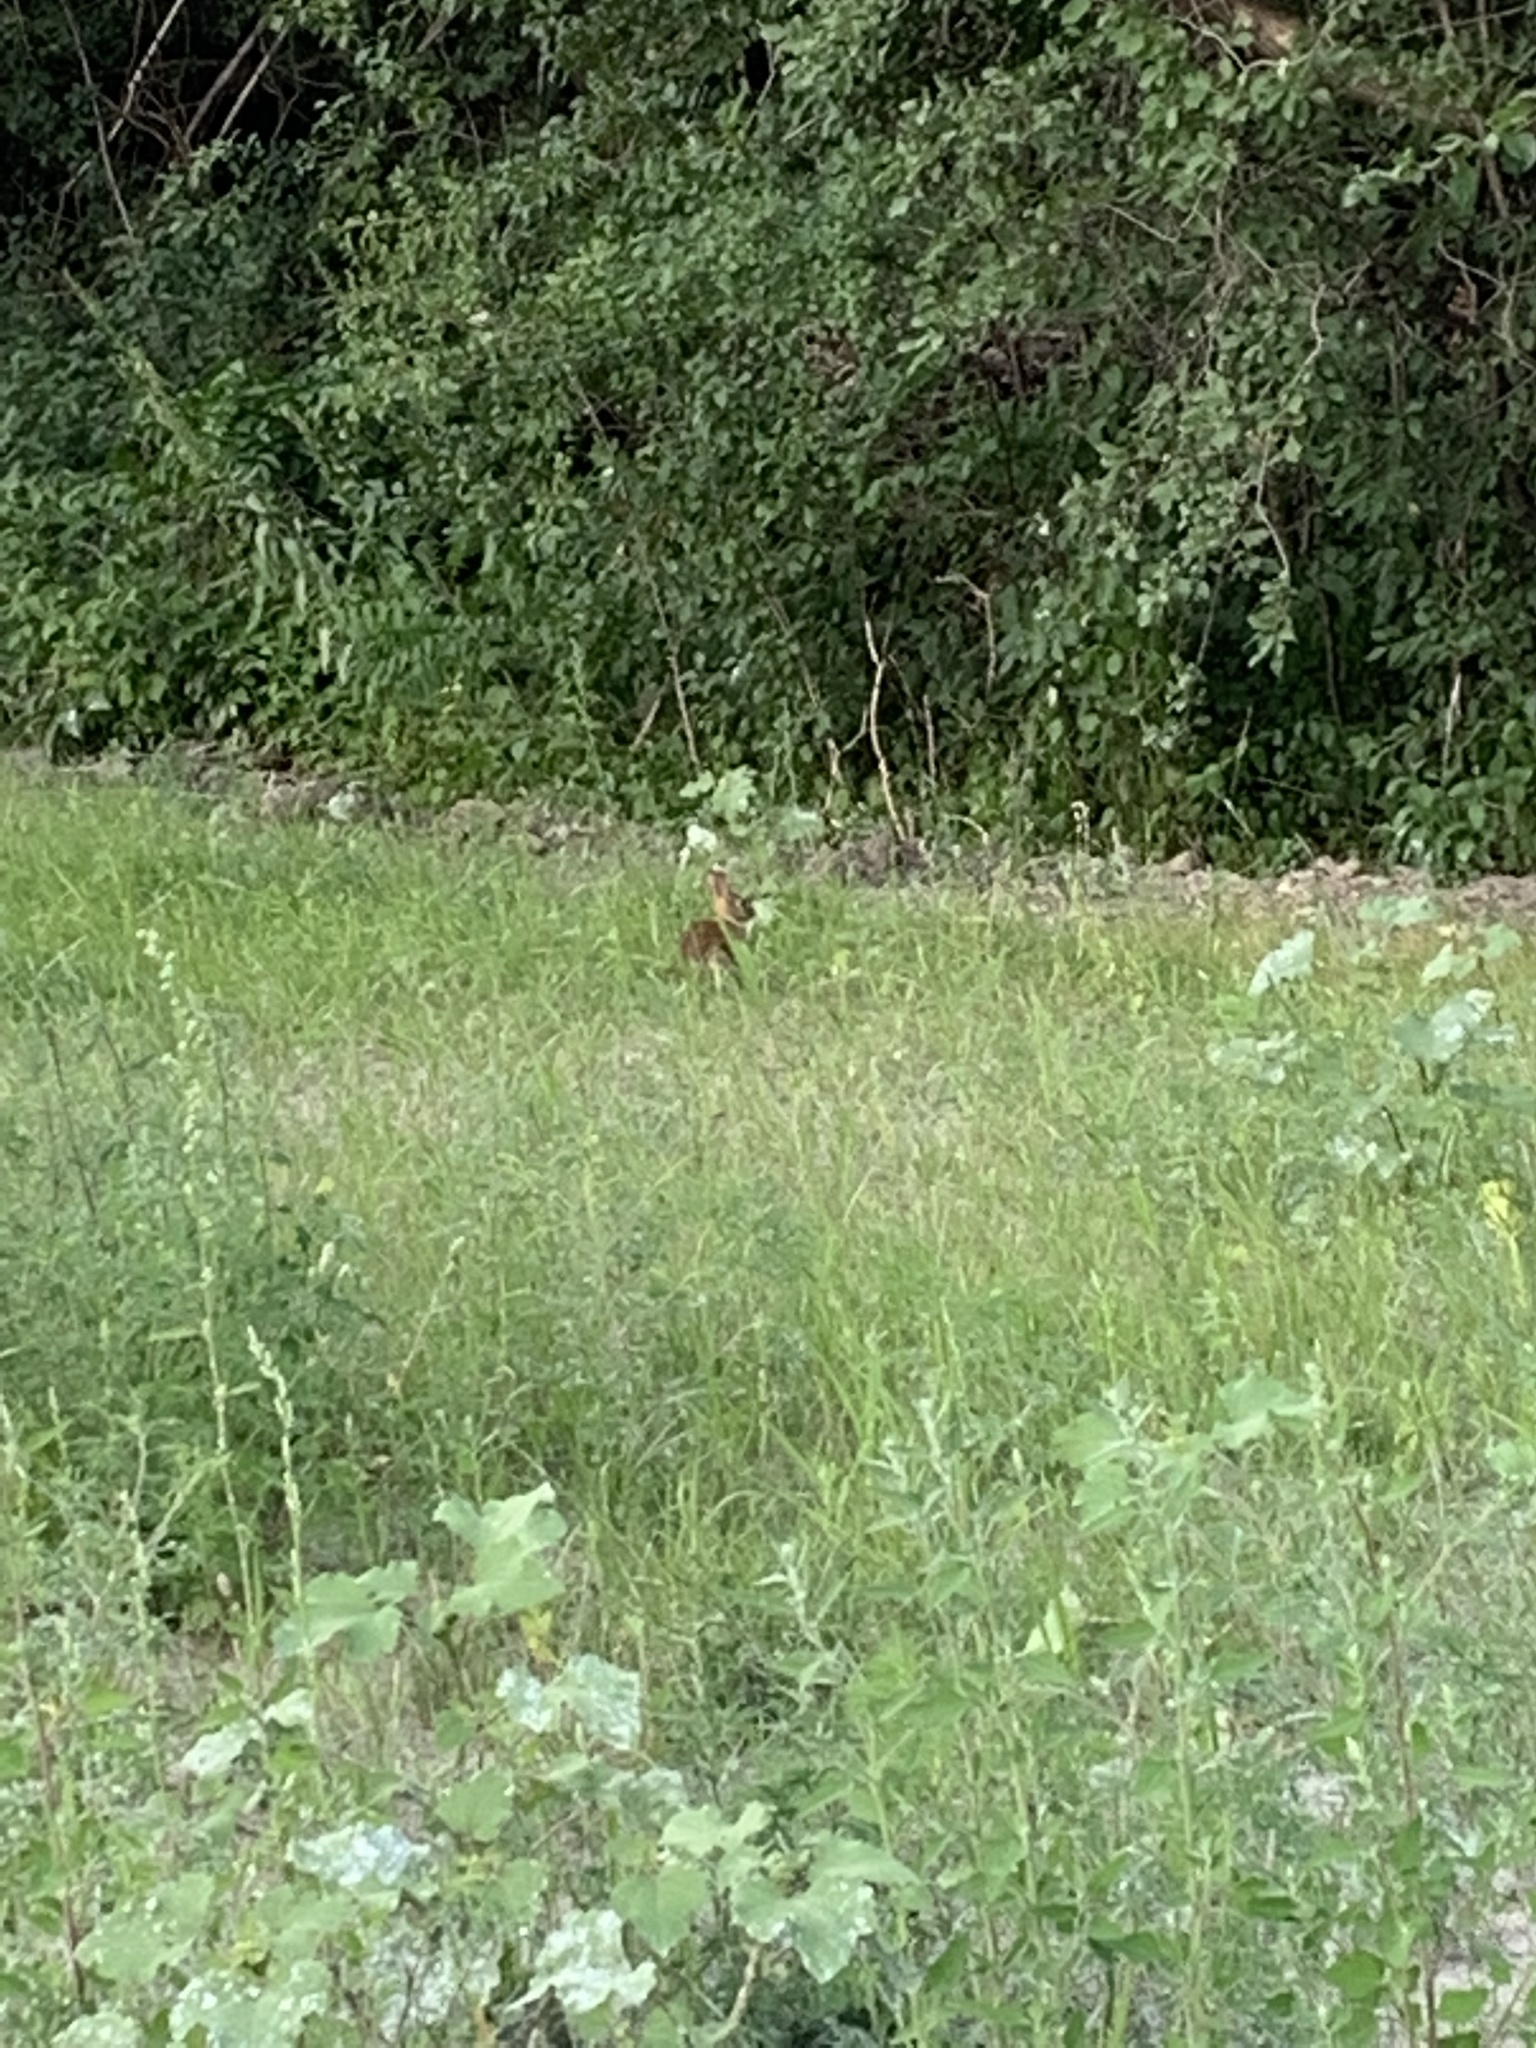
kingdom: Animalia
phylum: Chordata
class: Mammalia
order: Lagomorpha
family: Leporidae
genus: Sylvilagus
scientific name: Sylvilagus floridanus
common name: Eastern cottontail
